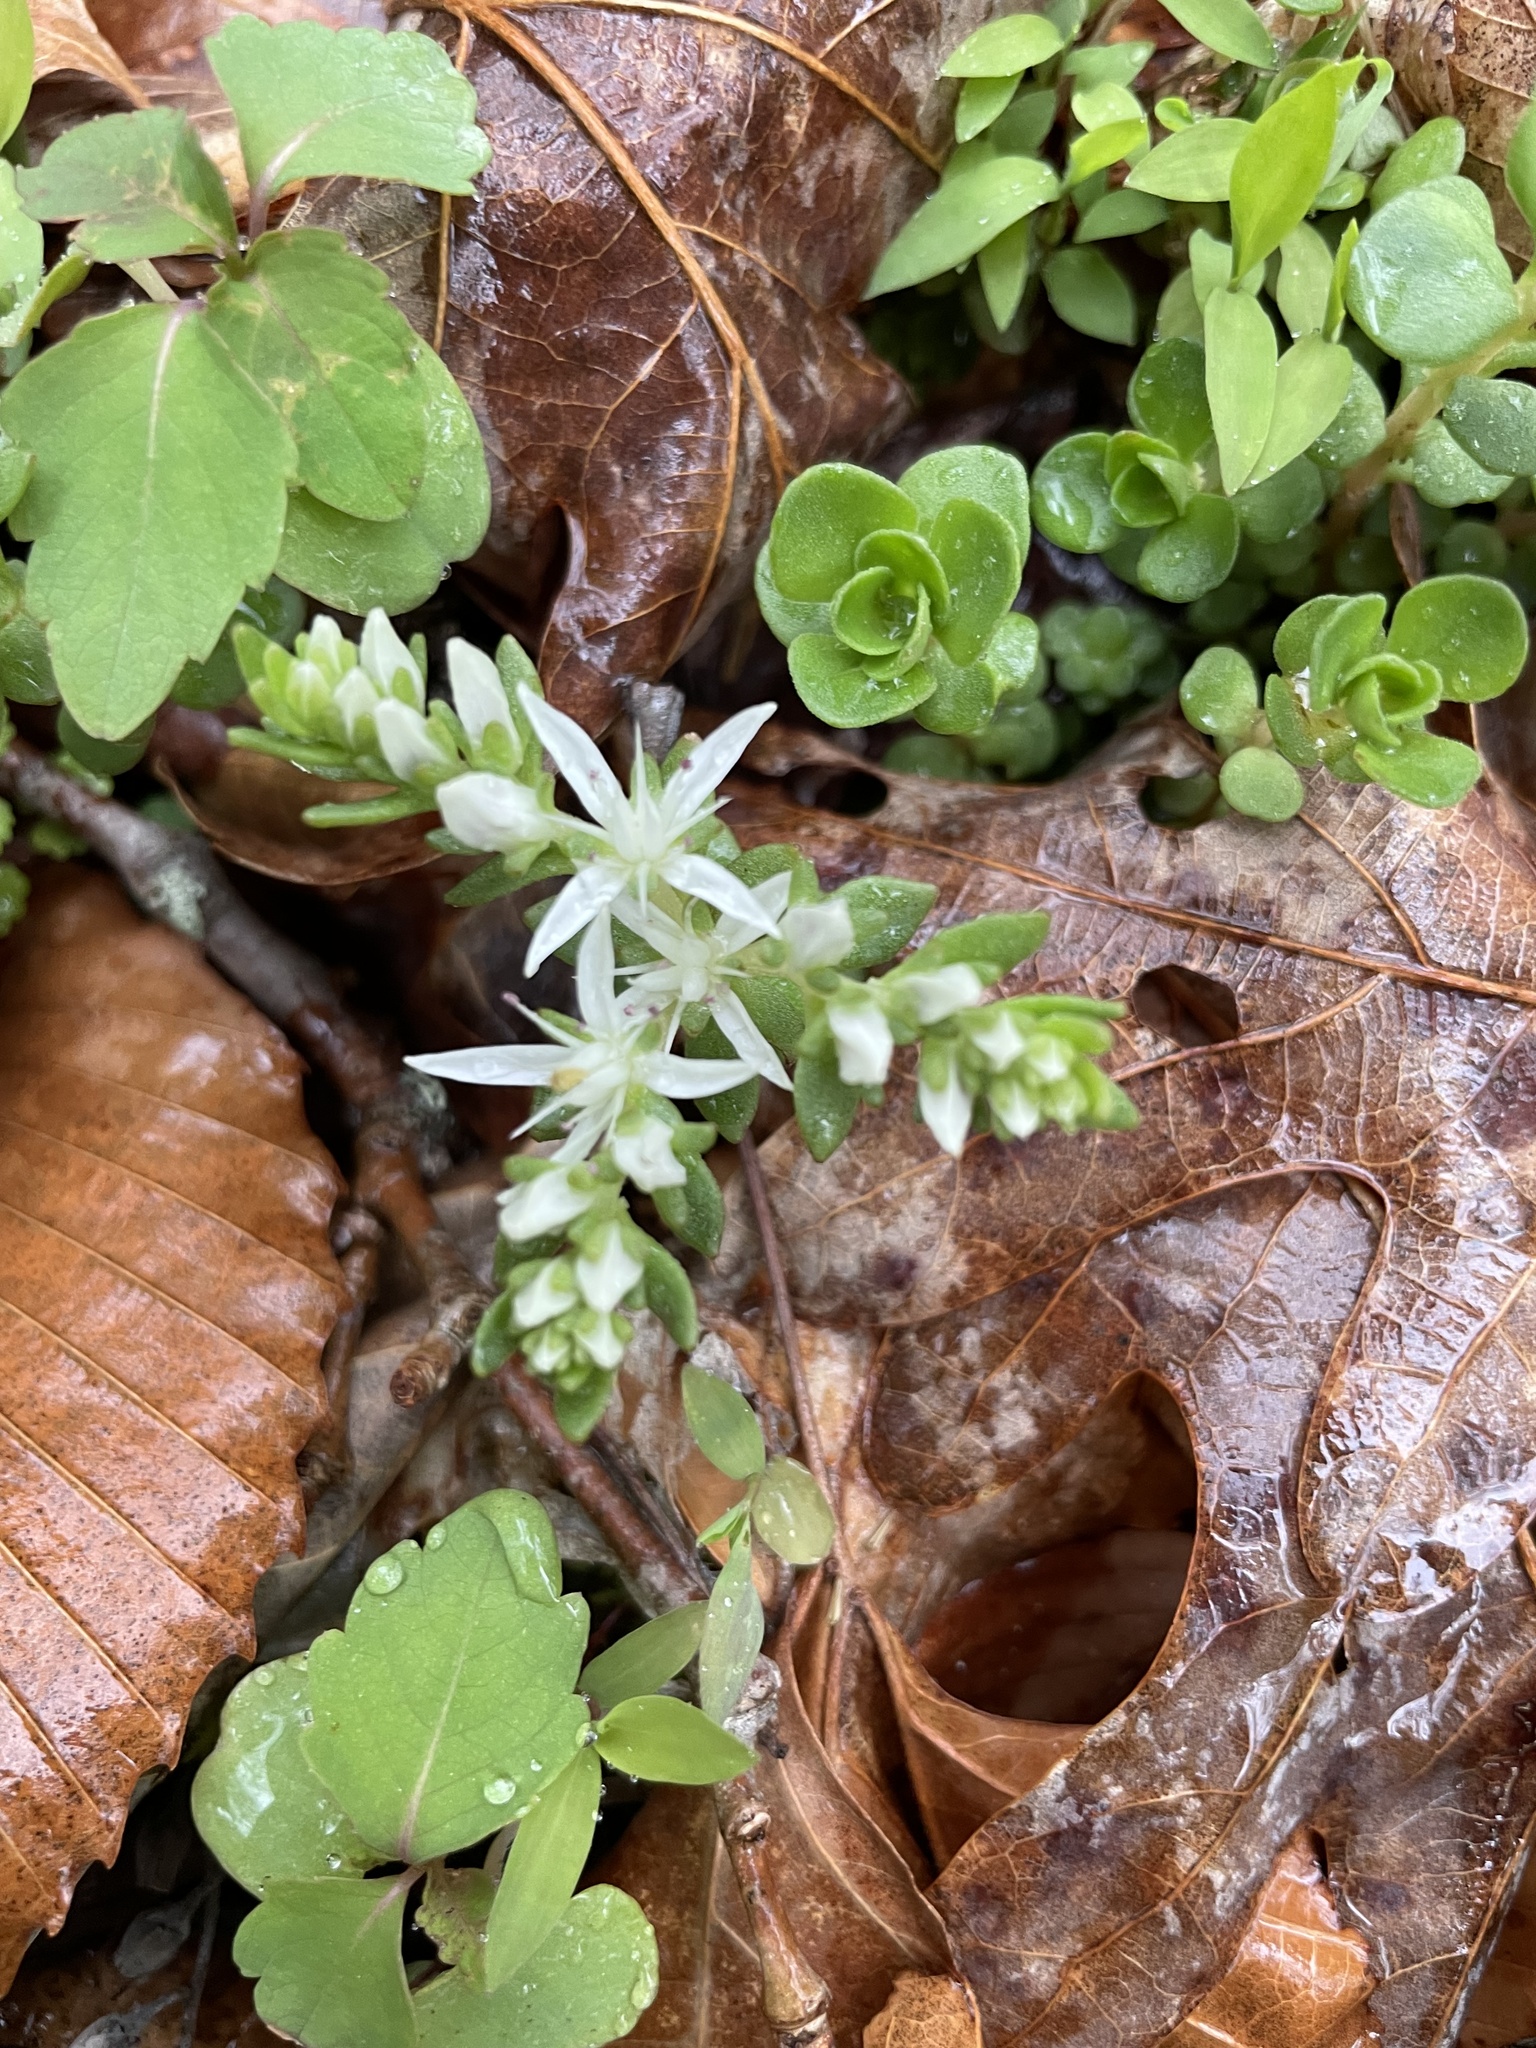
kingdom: Plantae
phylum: Tracheophyta
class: Magnoliopsida
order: Saxifragales
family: Crassulaceae
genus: Sedum
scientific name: Sedum ternatum
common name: Wild stonecrop
